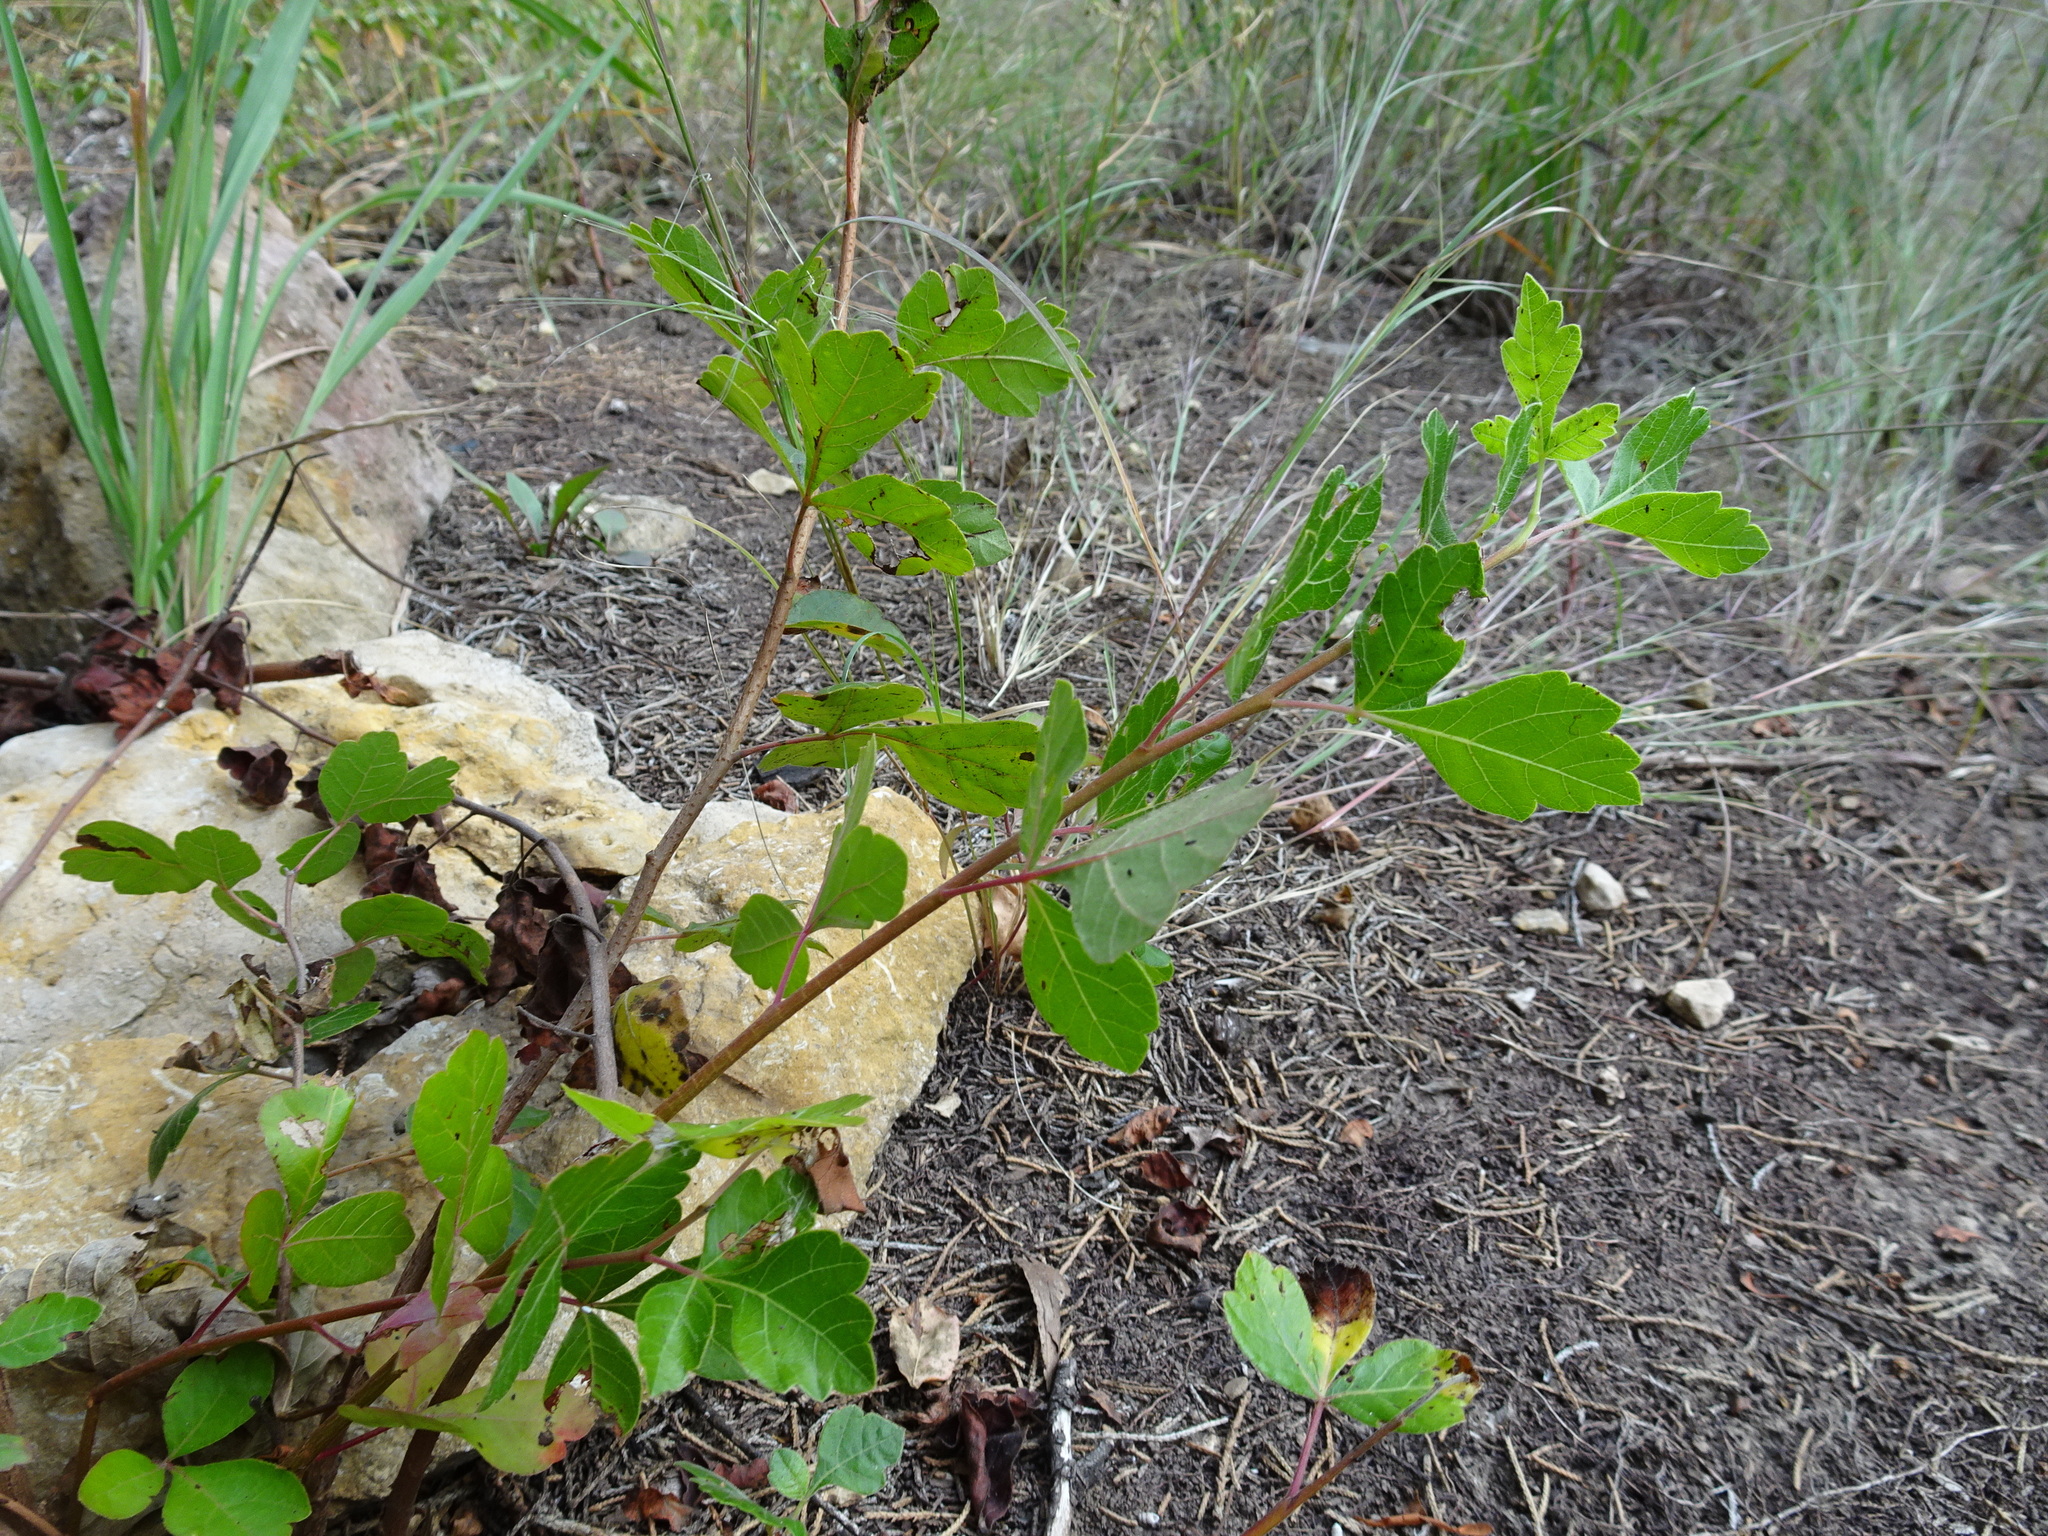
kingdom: Plantae
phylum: Tracheophyta
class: Magnoliopsida
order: Sapindales
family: Anacardiaceae
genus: Rhus
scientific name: Rhus aromatica
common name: Aromatic sumac
